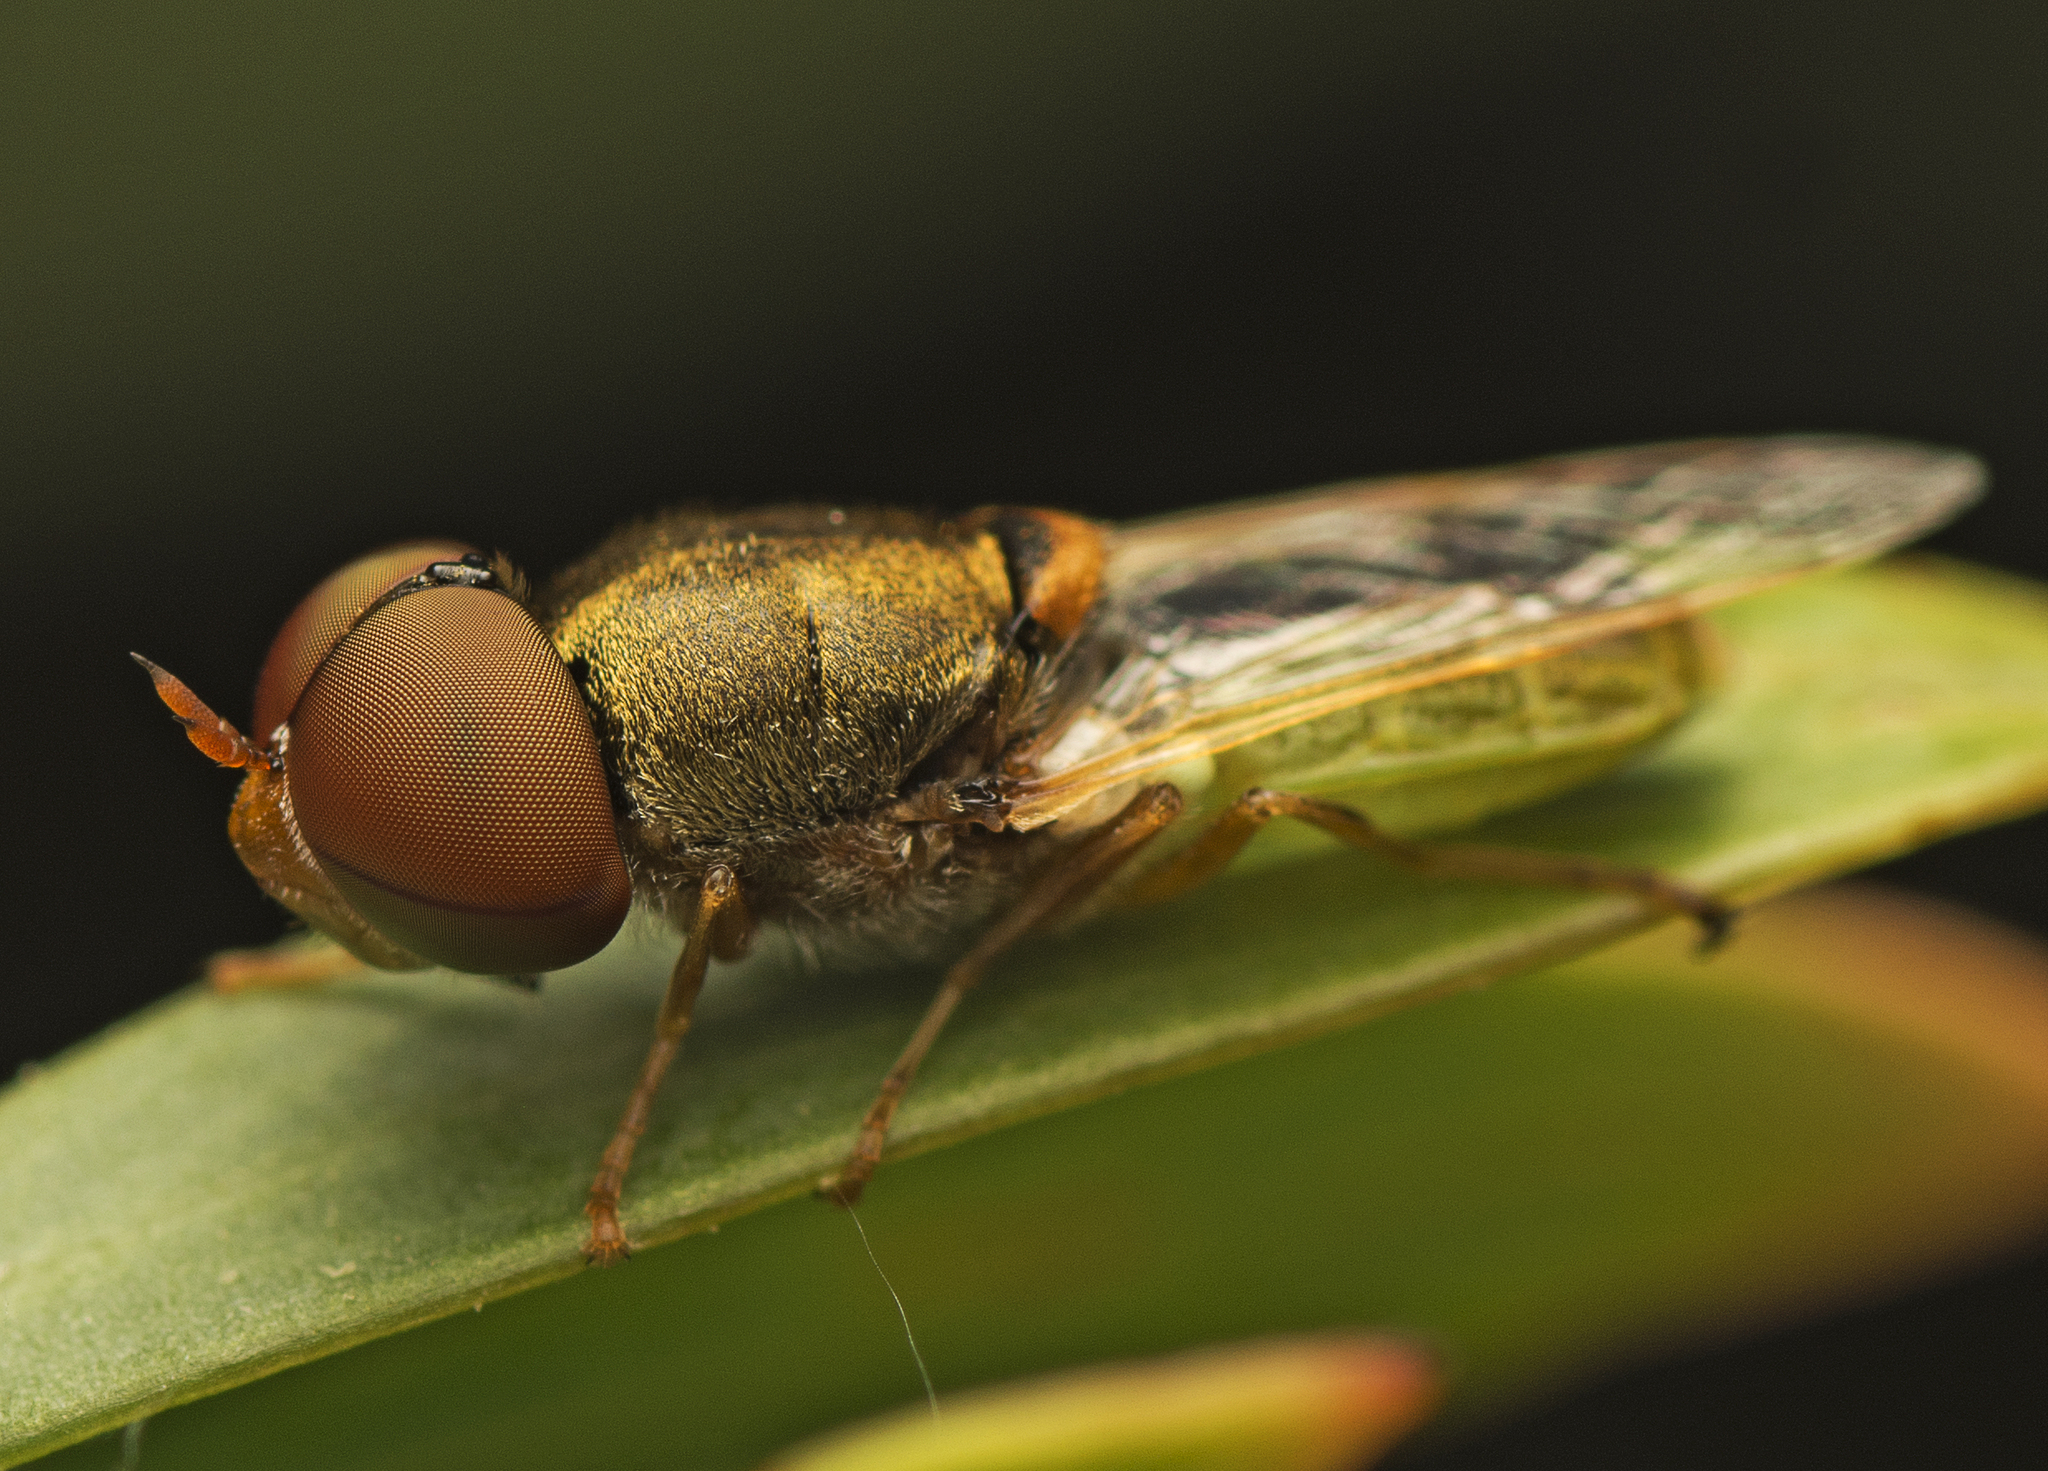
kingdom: Animalia
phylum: Arthropoda
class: Insecta
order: Diptera
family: Stratiomyidae
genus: Odontomyia
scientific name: Odontomyia decipiens
